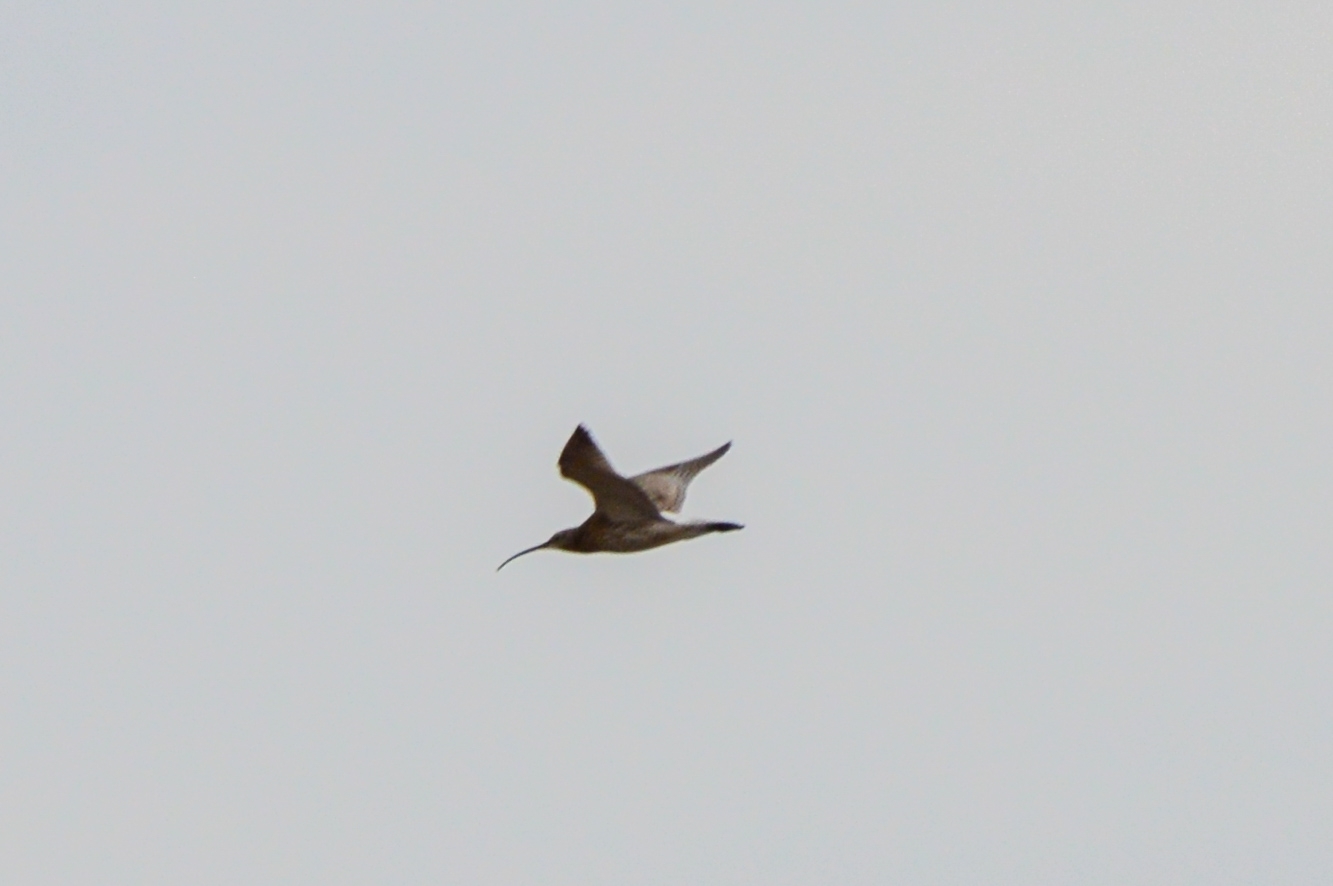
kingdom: Animalia
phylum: Chordata
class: Aves
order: Charadriiformes
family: Scolopacidae
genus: Numenius
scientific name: Numenius arquata
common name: Eurasian curlew
